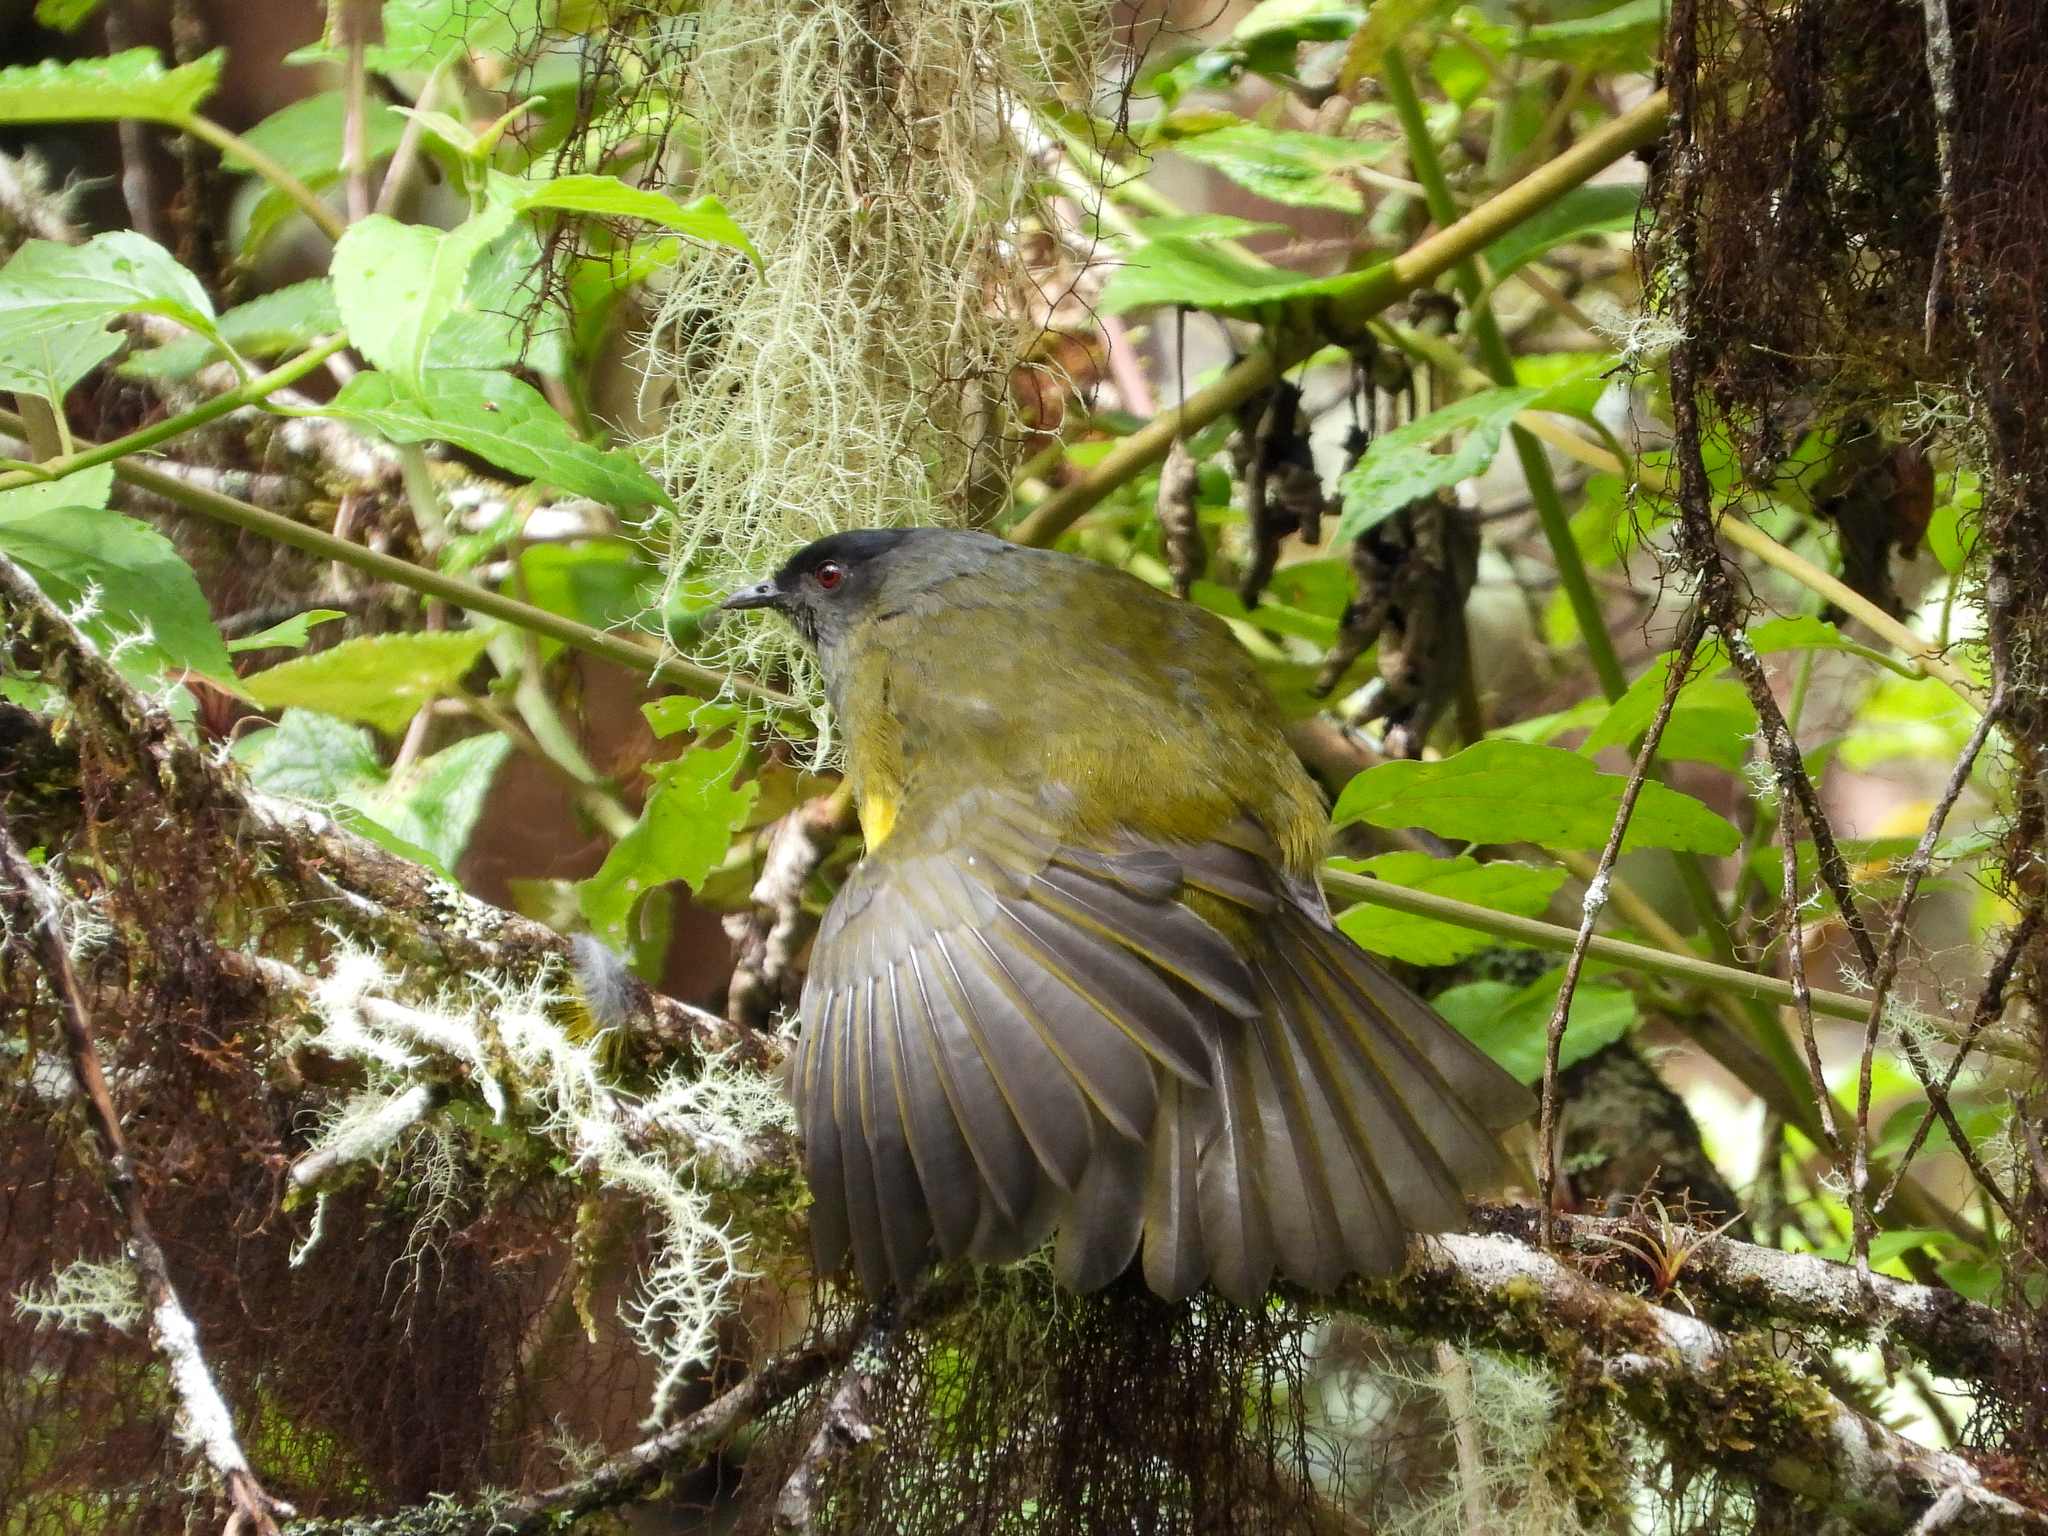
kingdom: Animalia
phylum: Chordata
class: Aves
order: Passeriformes
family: Ptilogonatidae
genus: Phainoptila
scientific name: Phainoptila melanoxantha
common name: Black-and-yellow phainoptila
